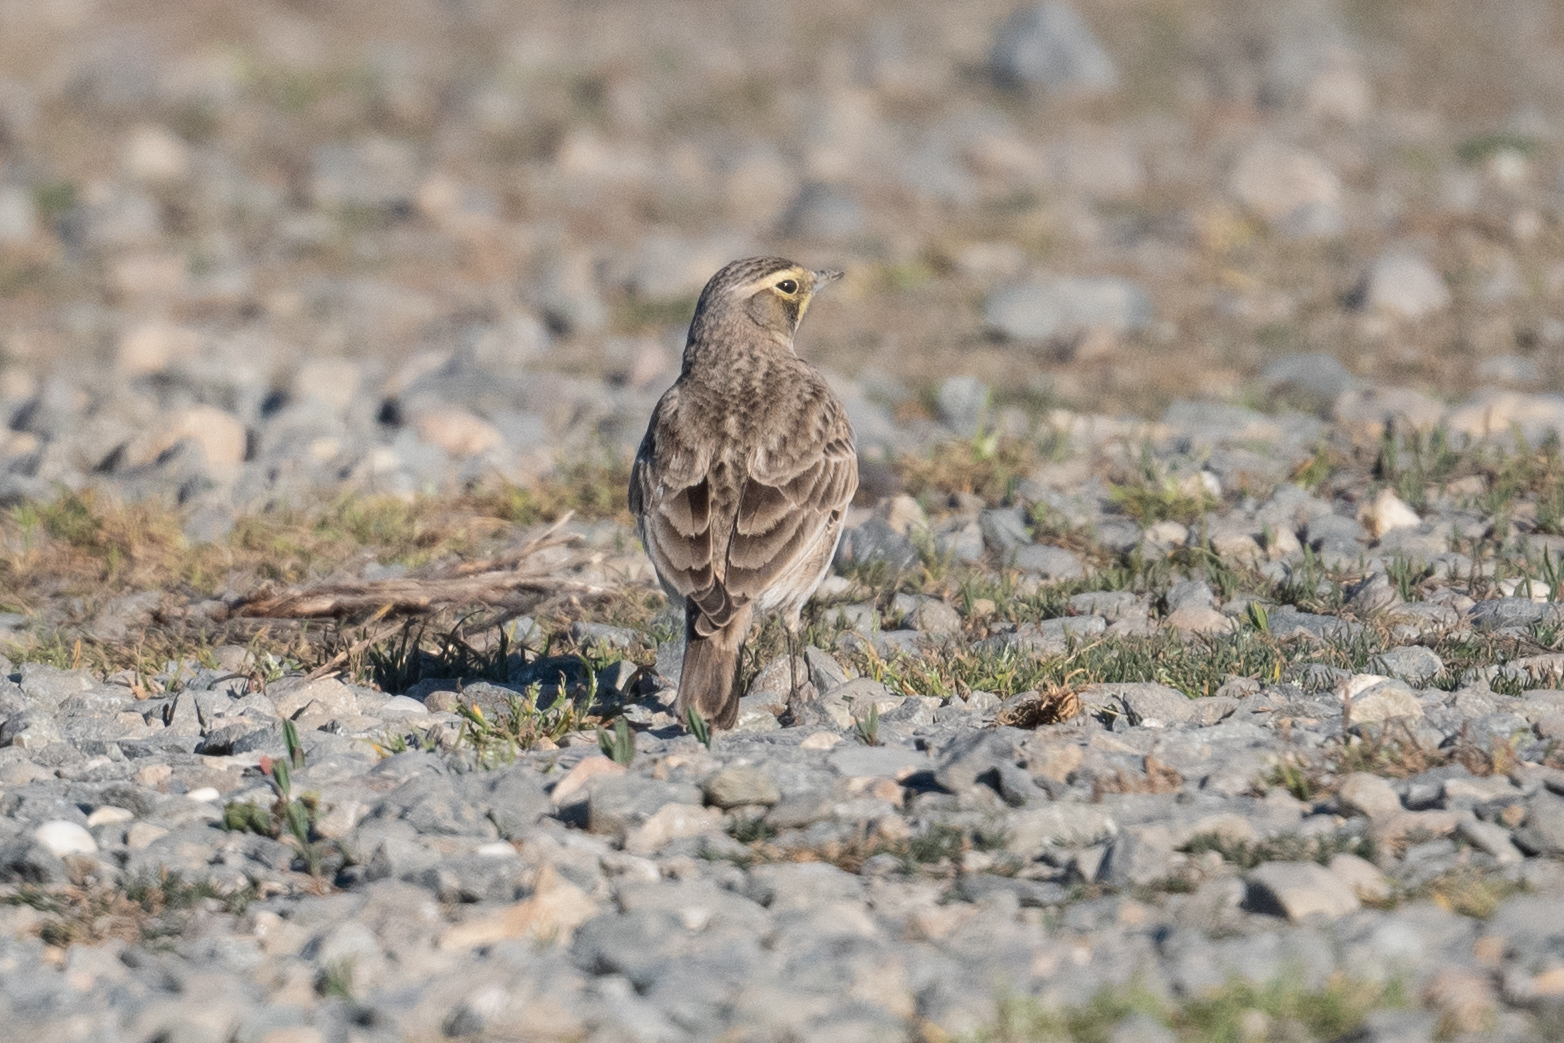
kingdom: Animalia
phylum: Chordata
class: Aves
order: Passeriformes
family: Alaudidae
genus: Eremophila
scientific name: Eremophila alpestris
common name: Horned lark
